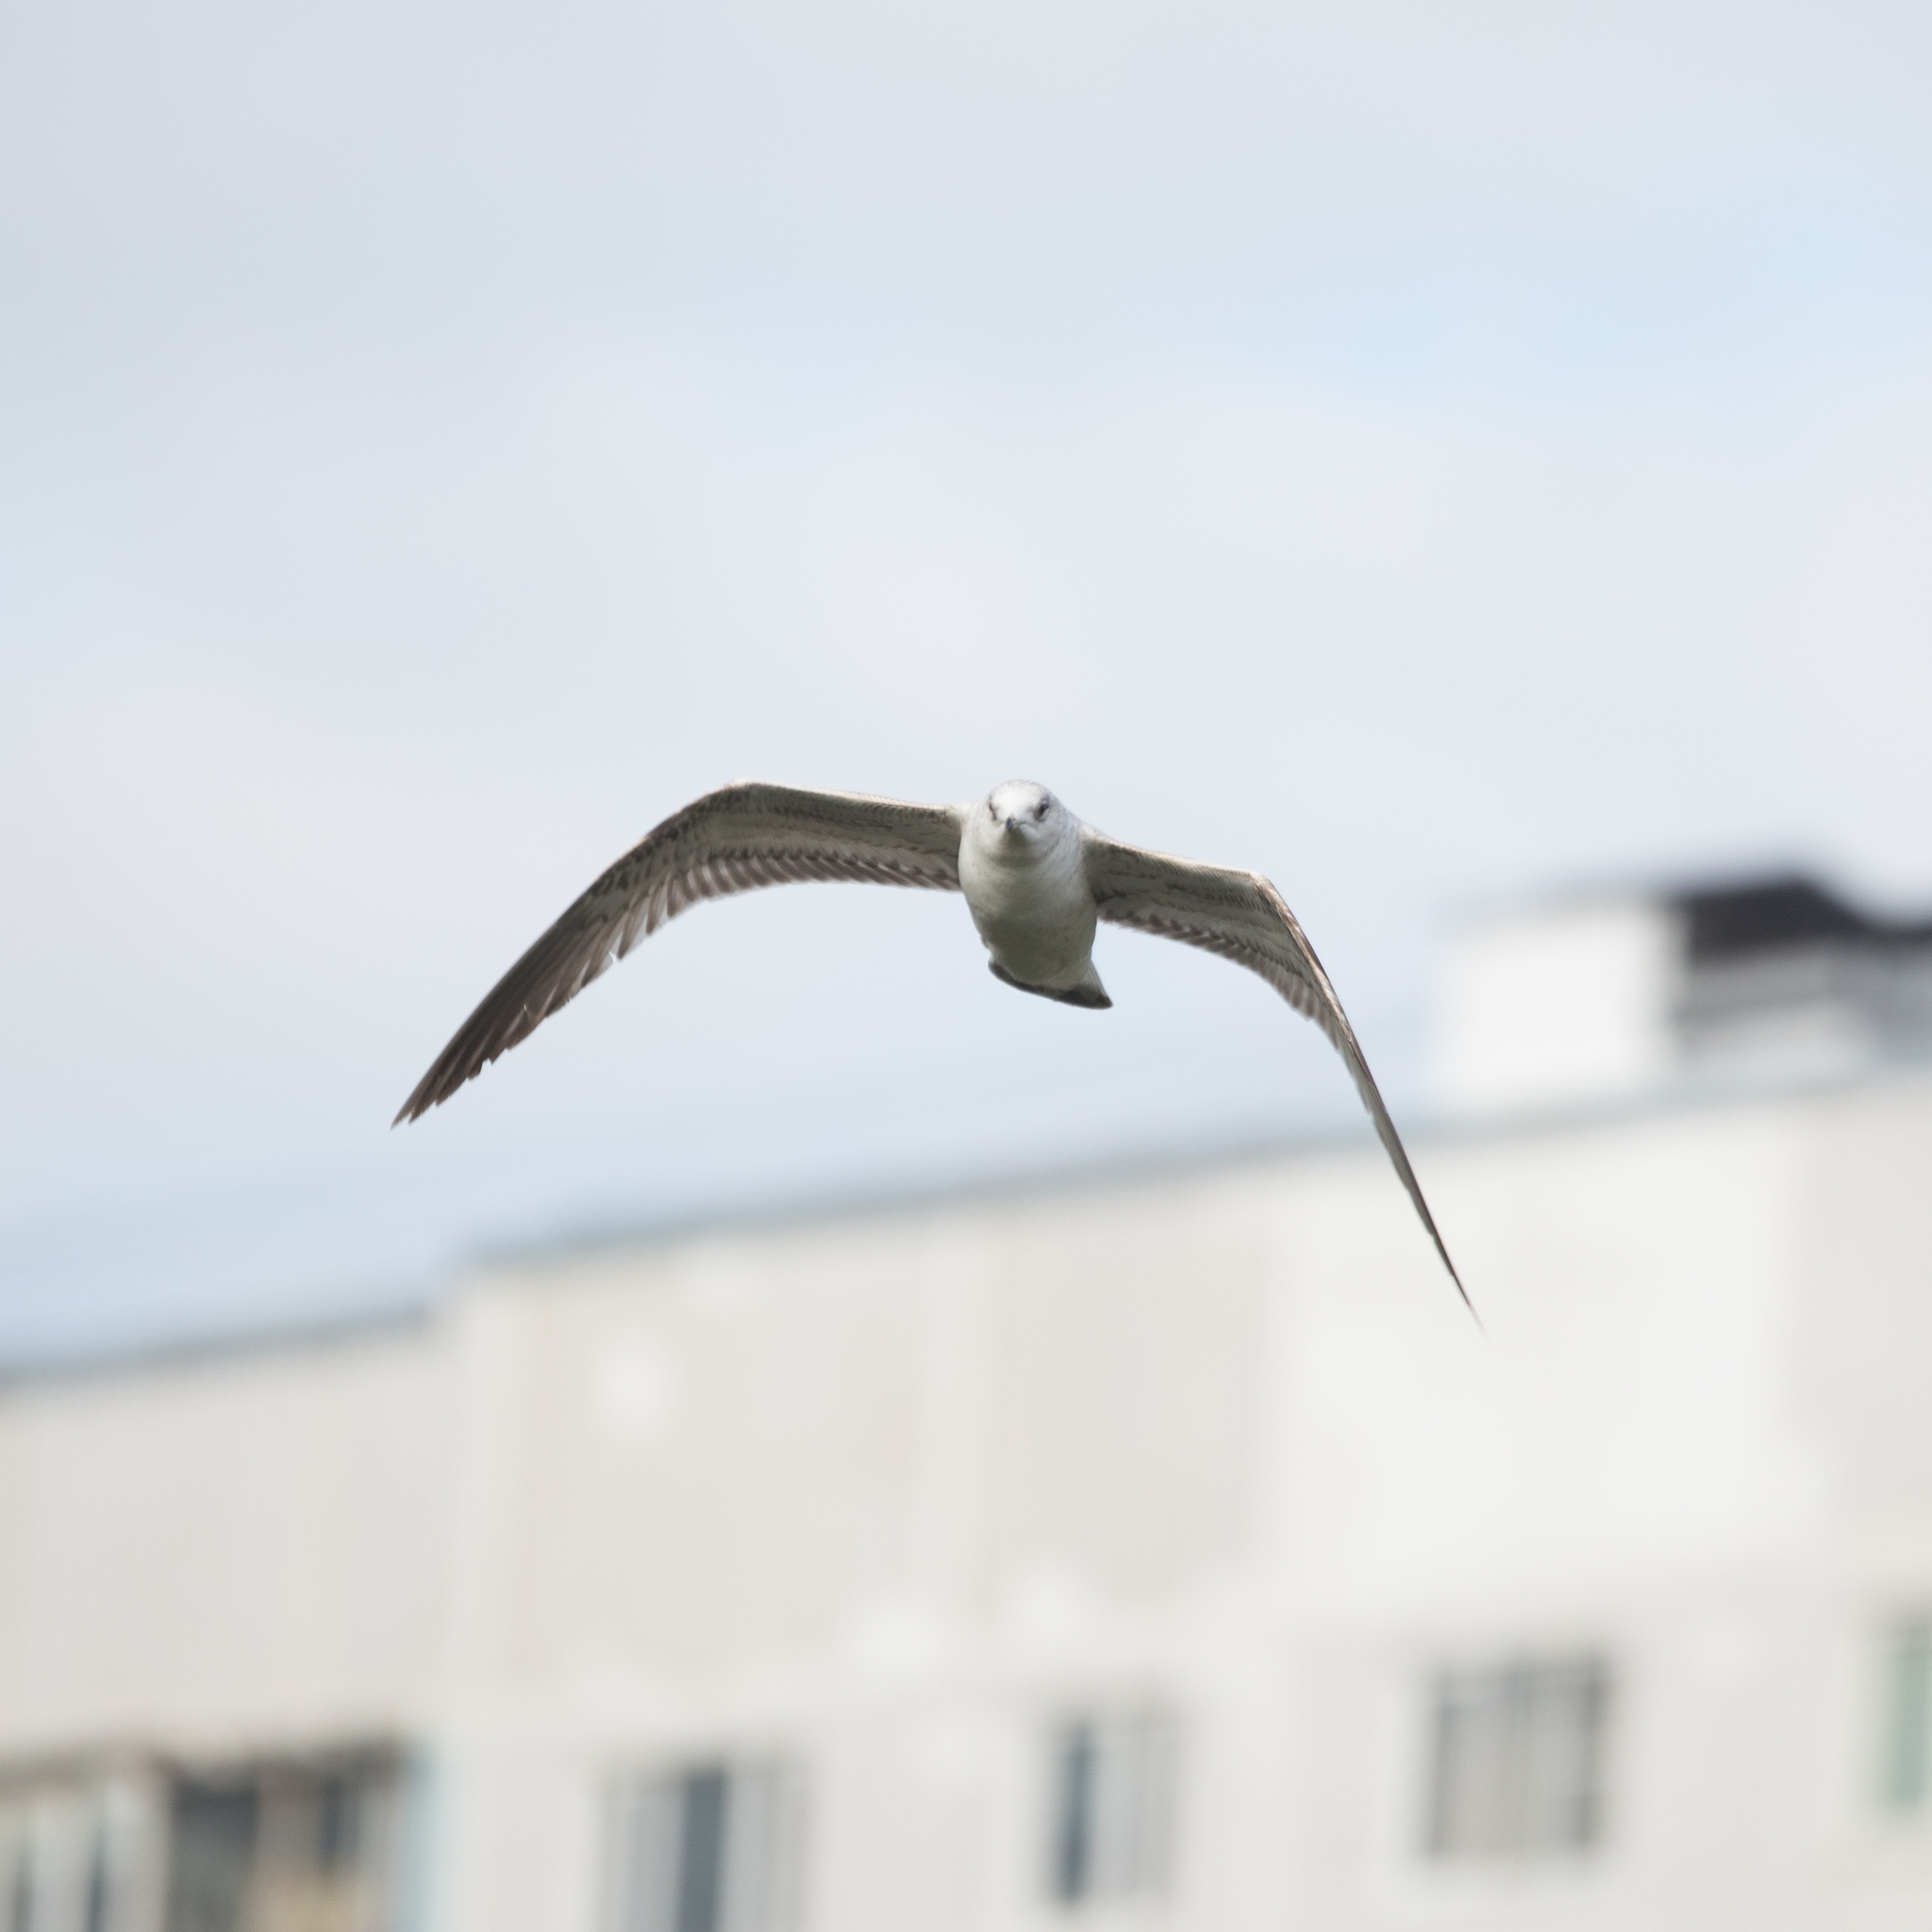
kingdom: Animalia
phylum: Chordata
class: Aves
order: Charadriiformes
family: Laridae
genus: Larus
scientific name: Larus canus
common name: Mew gull
